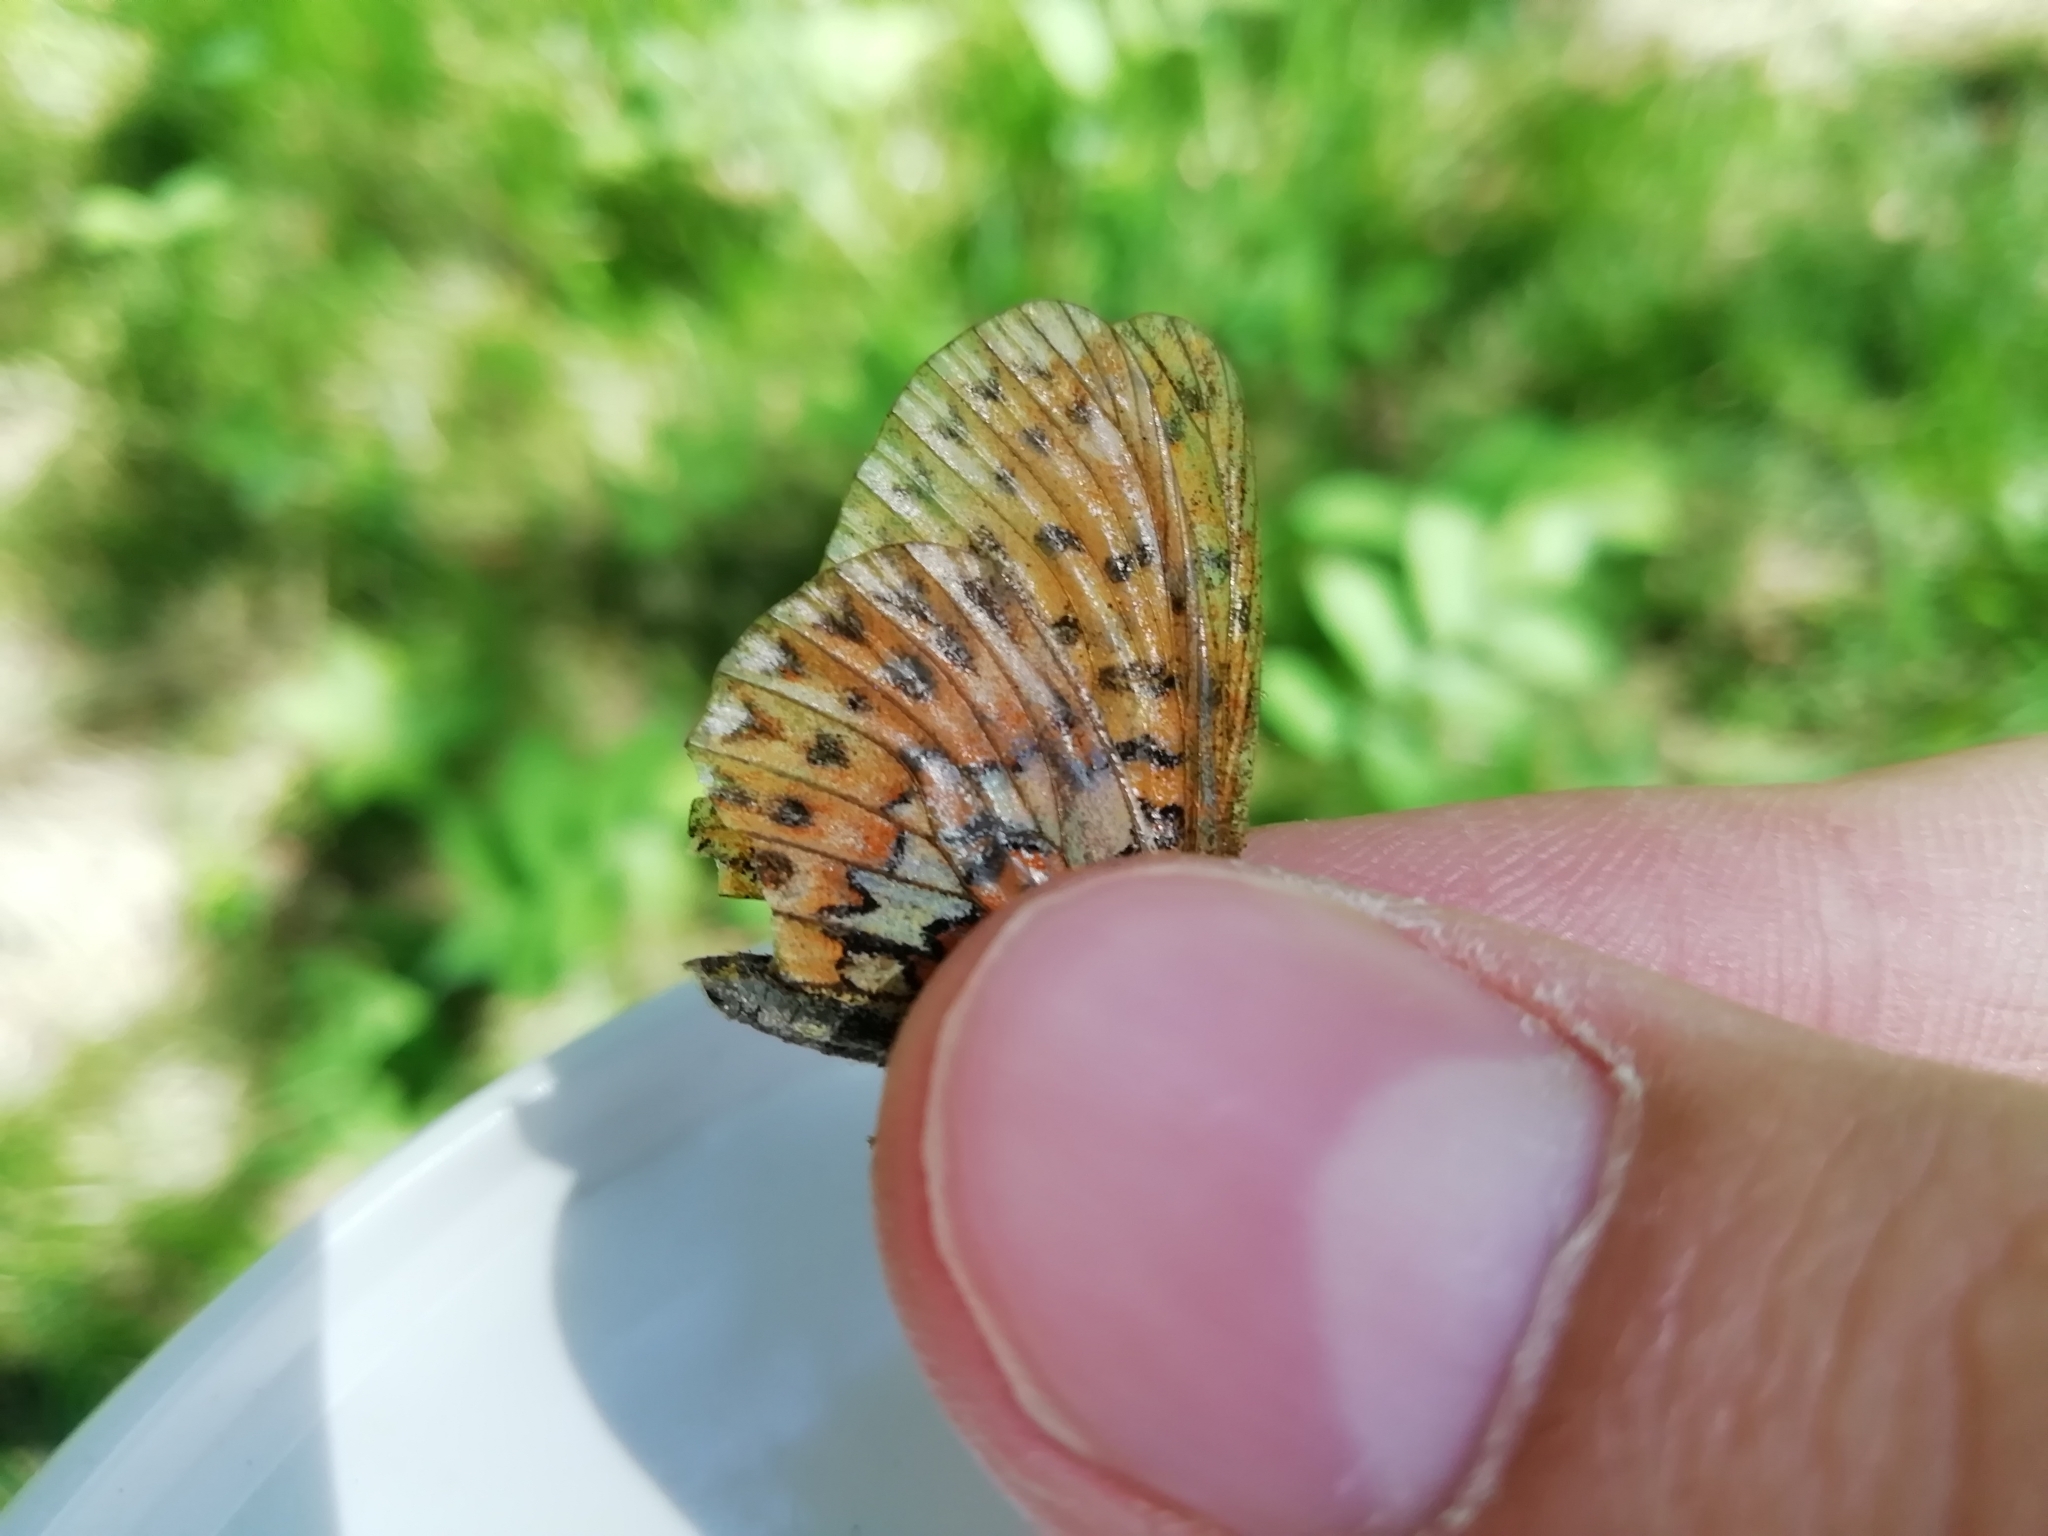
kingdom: Animalia
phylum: Arthropoda
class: Insecta
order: Lepidoptera
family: Nymphalidae
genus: Clossiana
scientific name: Clossiana euphrosyne
